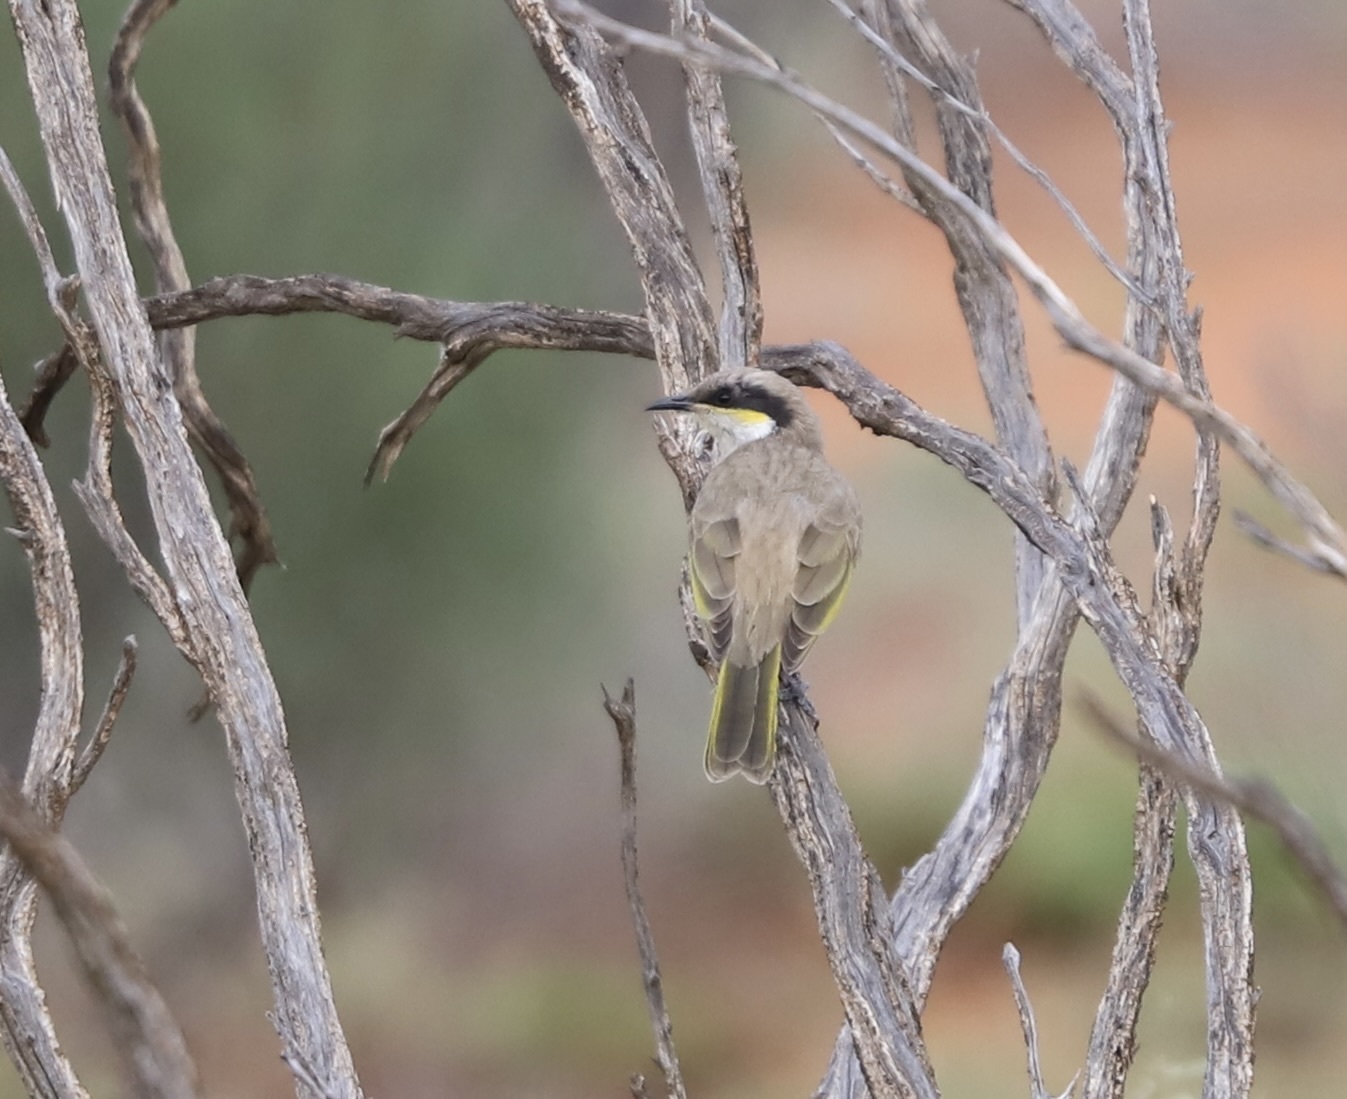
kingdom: Animalia
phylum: Chordata
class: Aves
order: Passeriformes
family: Meliphagidae
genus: Gavicalis
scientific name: Gavicalis virescens
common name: Singing honeyeater
